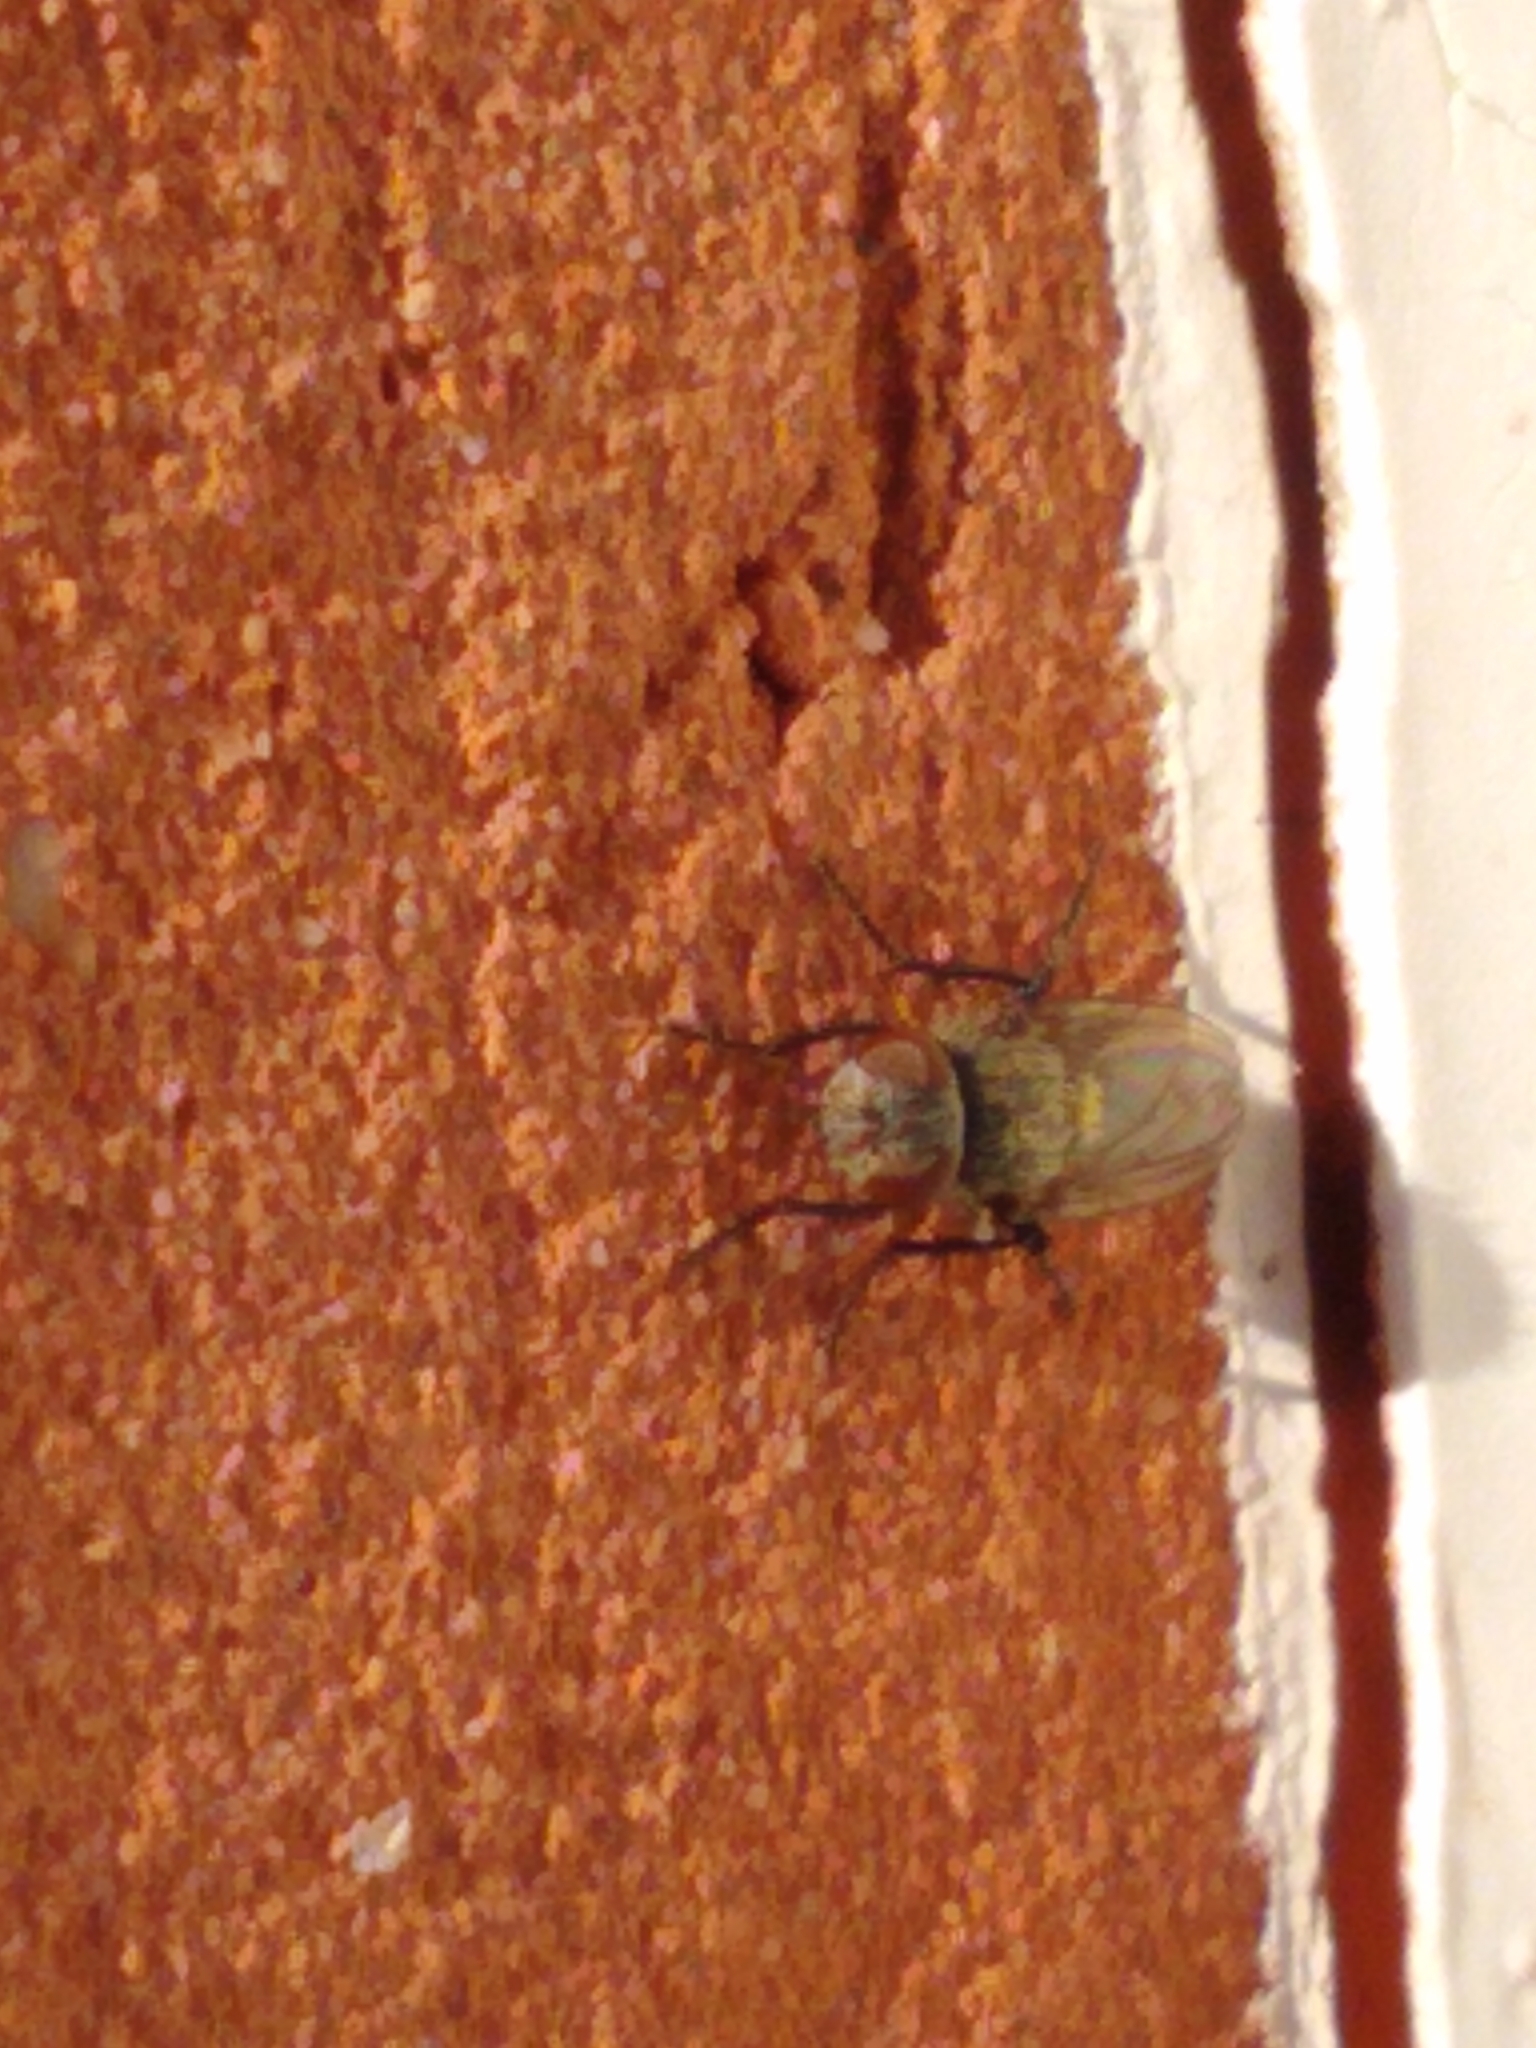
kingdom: Animalia
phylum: Arthropoda
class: Insecta
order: Diptera
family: Polleniidae
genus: Pollenia
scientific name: Pollenia
